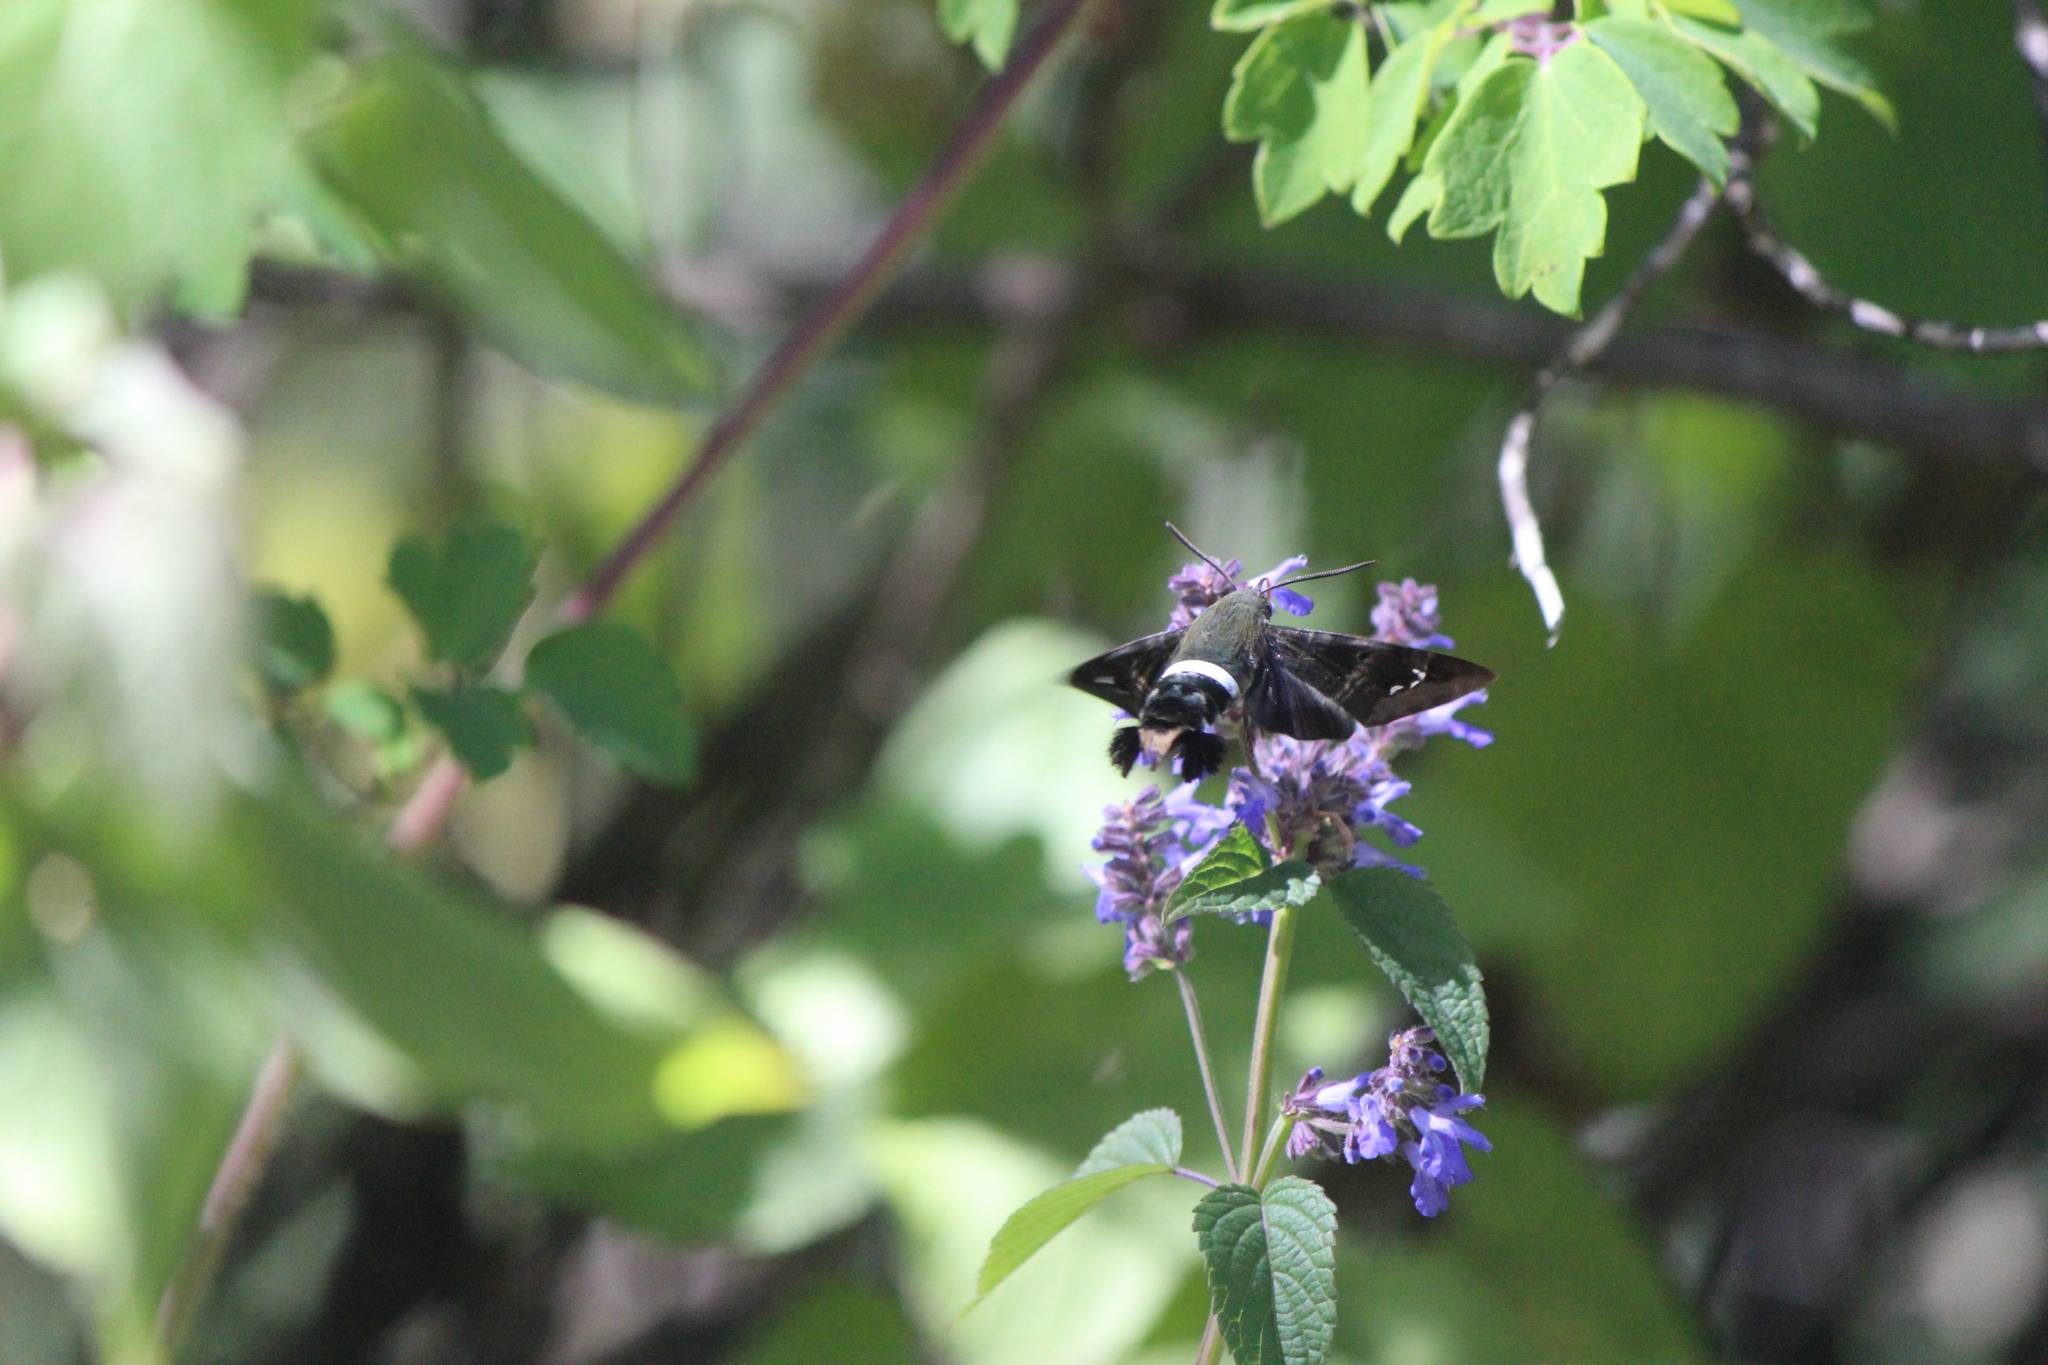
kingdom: Animalia
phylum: Arthropoda
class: Insecta
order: Lepidoptera
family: Sphingidae
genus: Aellopos
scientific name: Aellopos clavipes
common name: Clavipes sphinx
